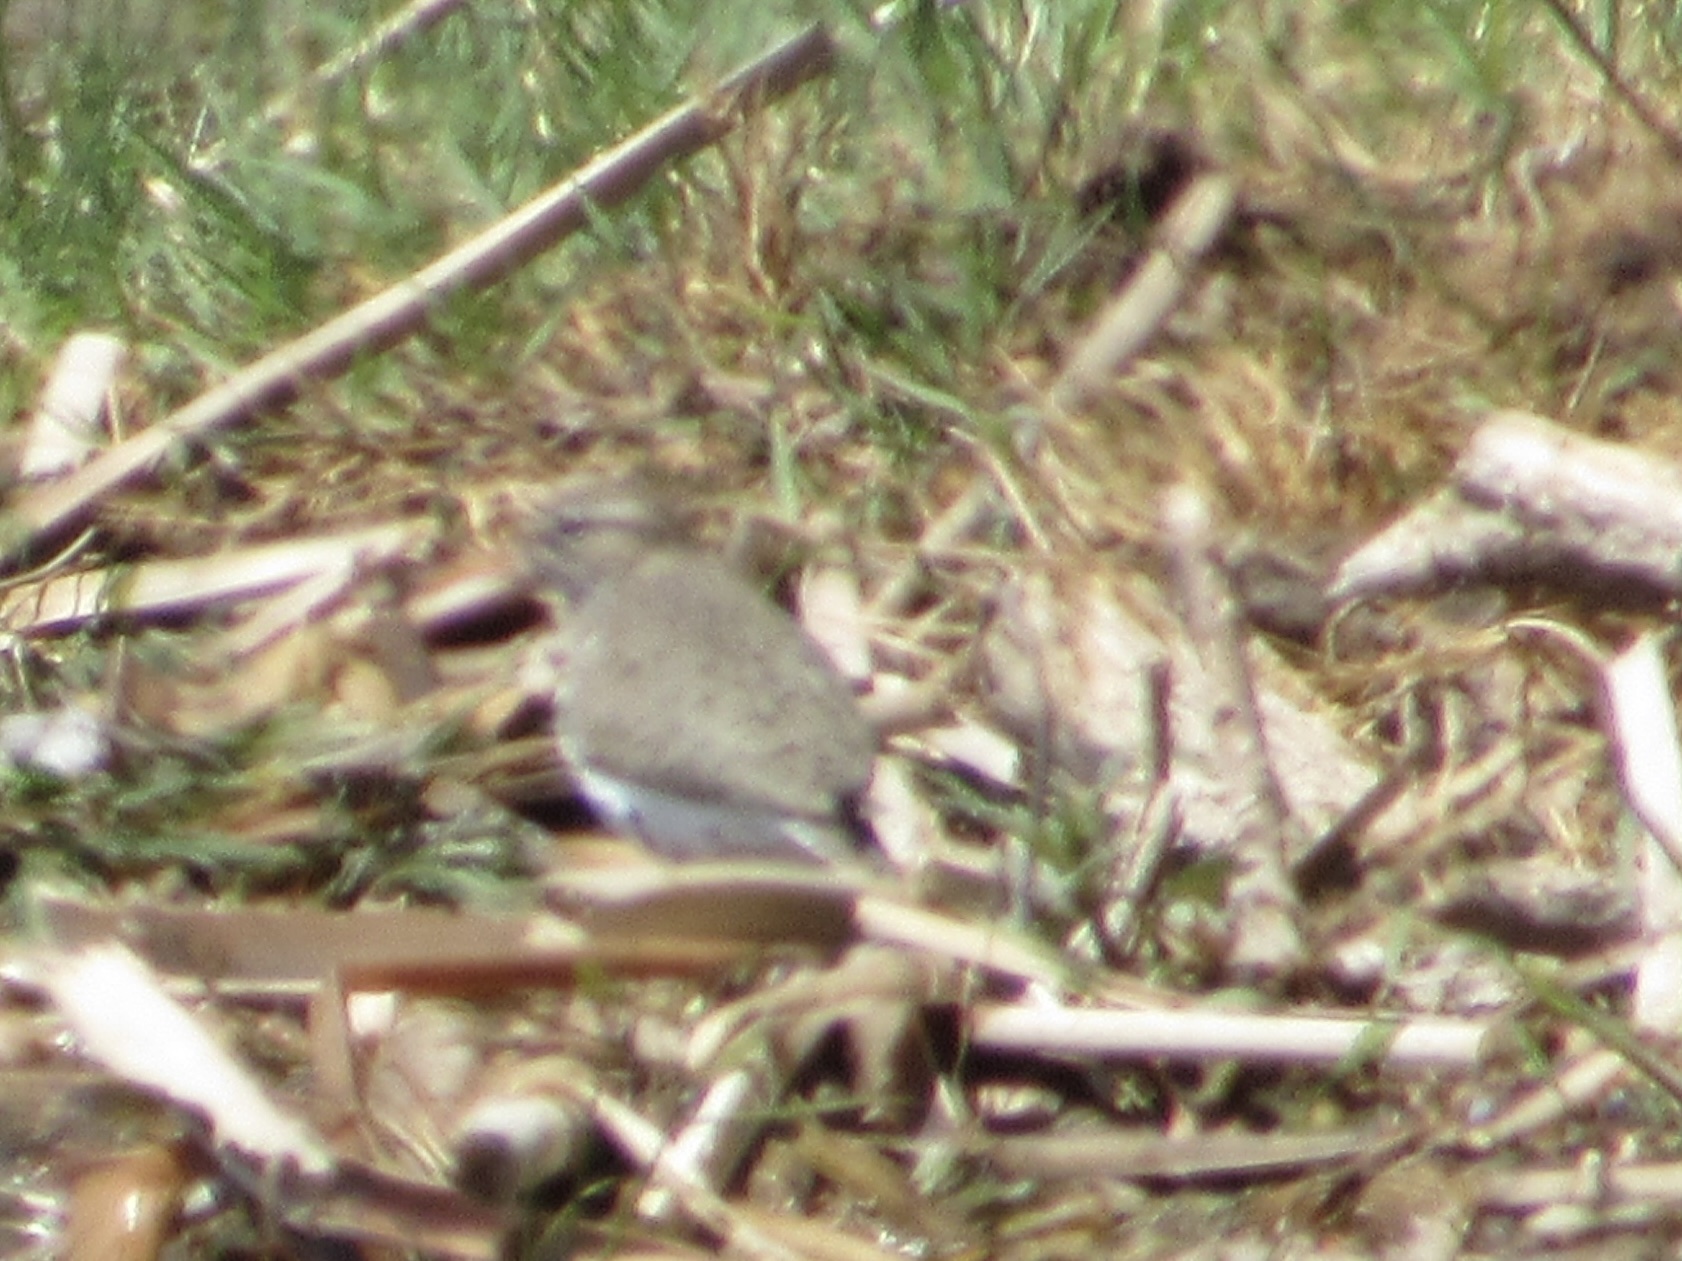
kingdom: Animalia
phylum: Chordata
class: Aves
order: Charadriiformes
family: Scolopacidae
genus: Actitis
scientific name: Actitis macularius
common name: Spotted sandpiper
